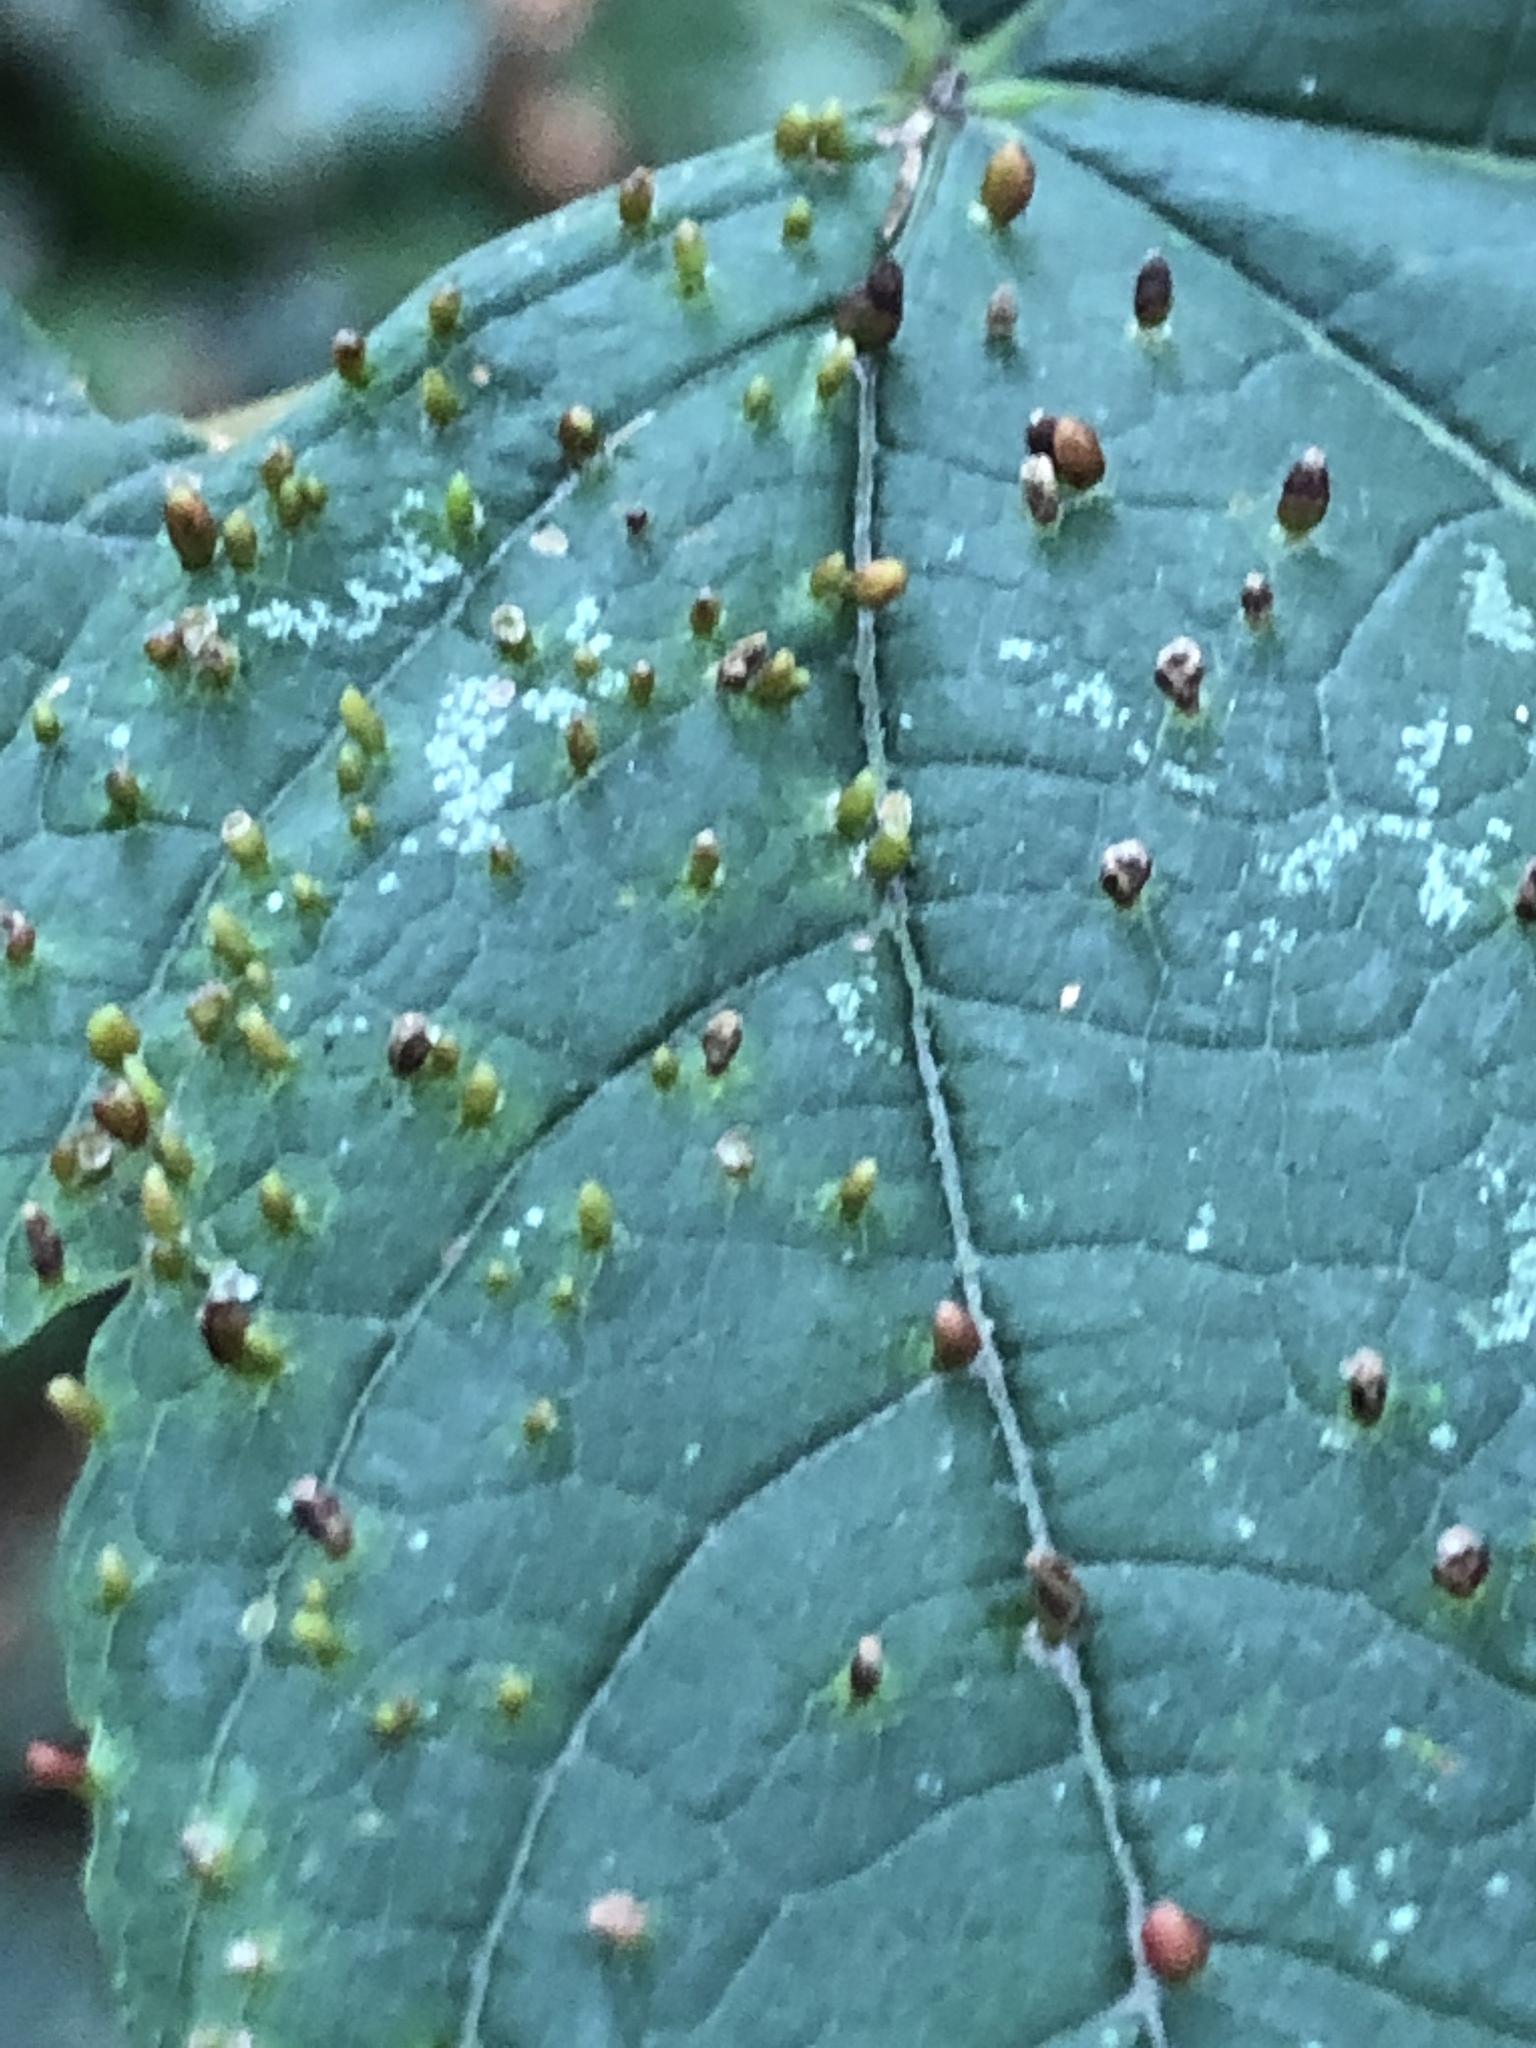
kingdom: Animalia
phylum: Arthropoda
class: Arachnida
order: Trombidiformes
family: Eriophyidae
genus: Aceria
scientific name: Aceria cephaloneus
